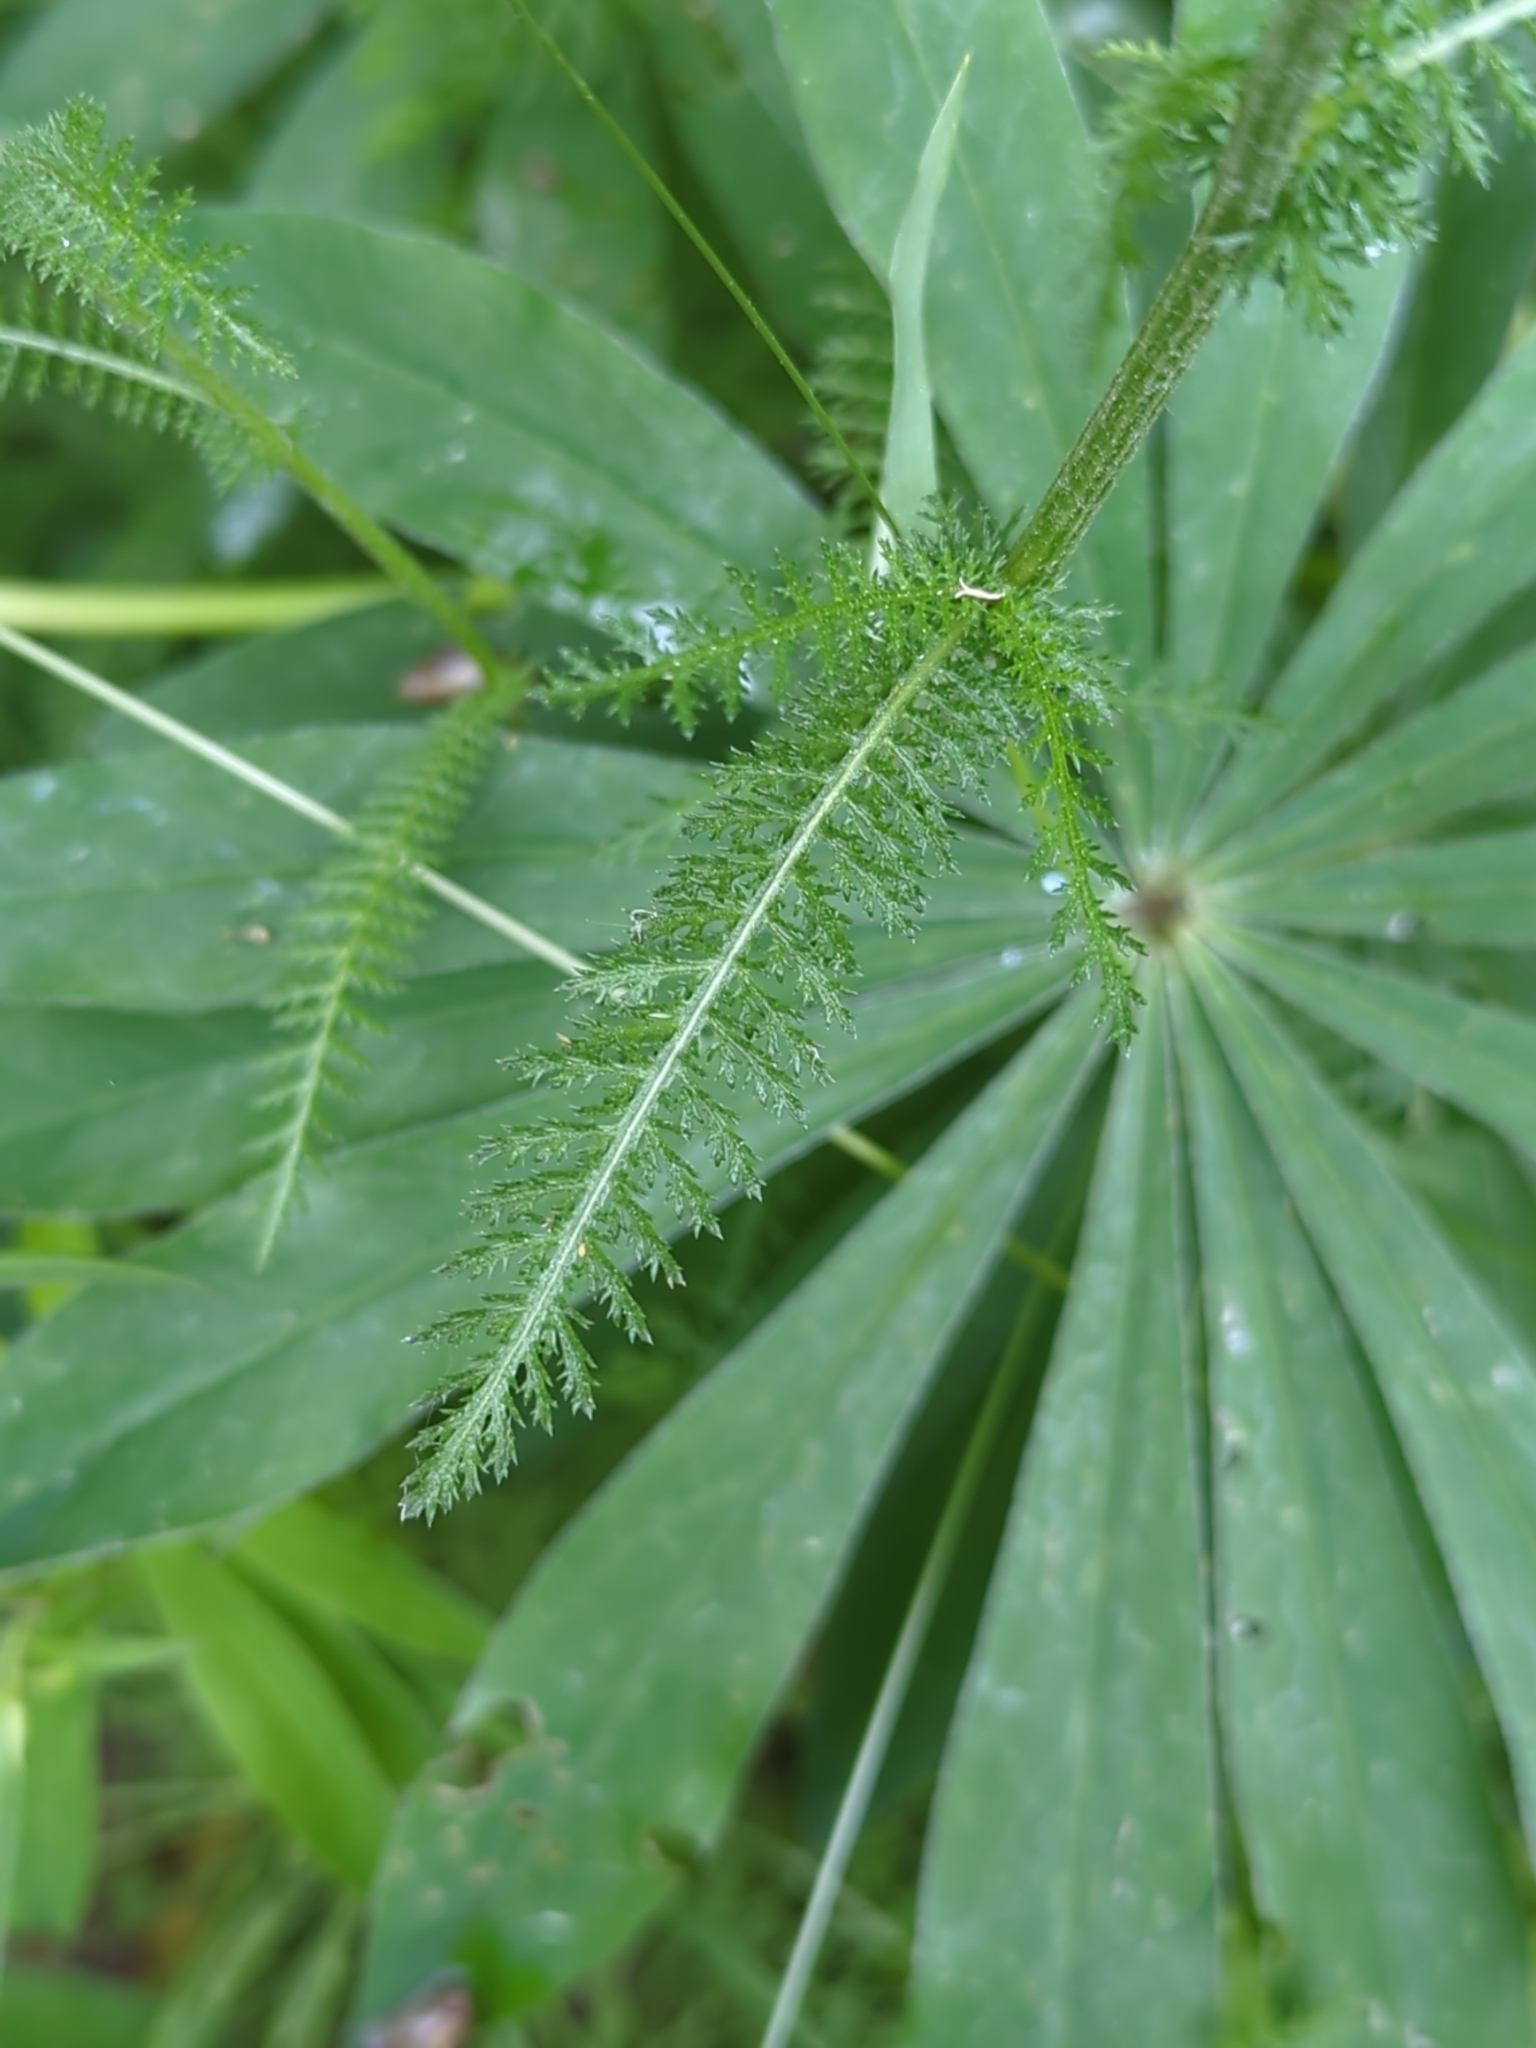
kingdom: Plantae
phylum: Tracheophyta
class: Magnoliopsida
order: Asterales
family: Asteraceae
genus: Achillea
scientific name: Achillea millefolium
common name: Yarrow
